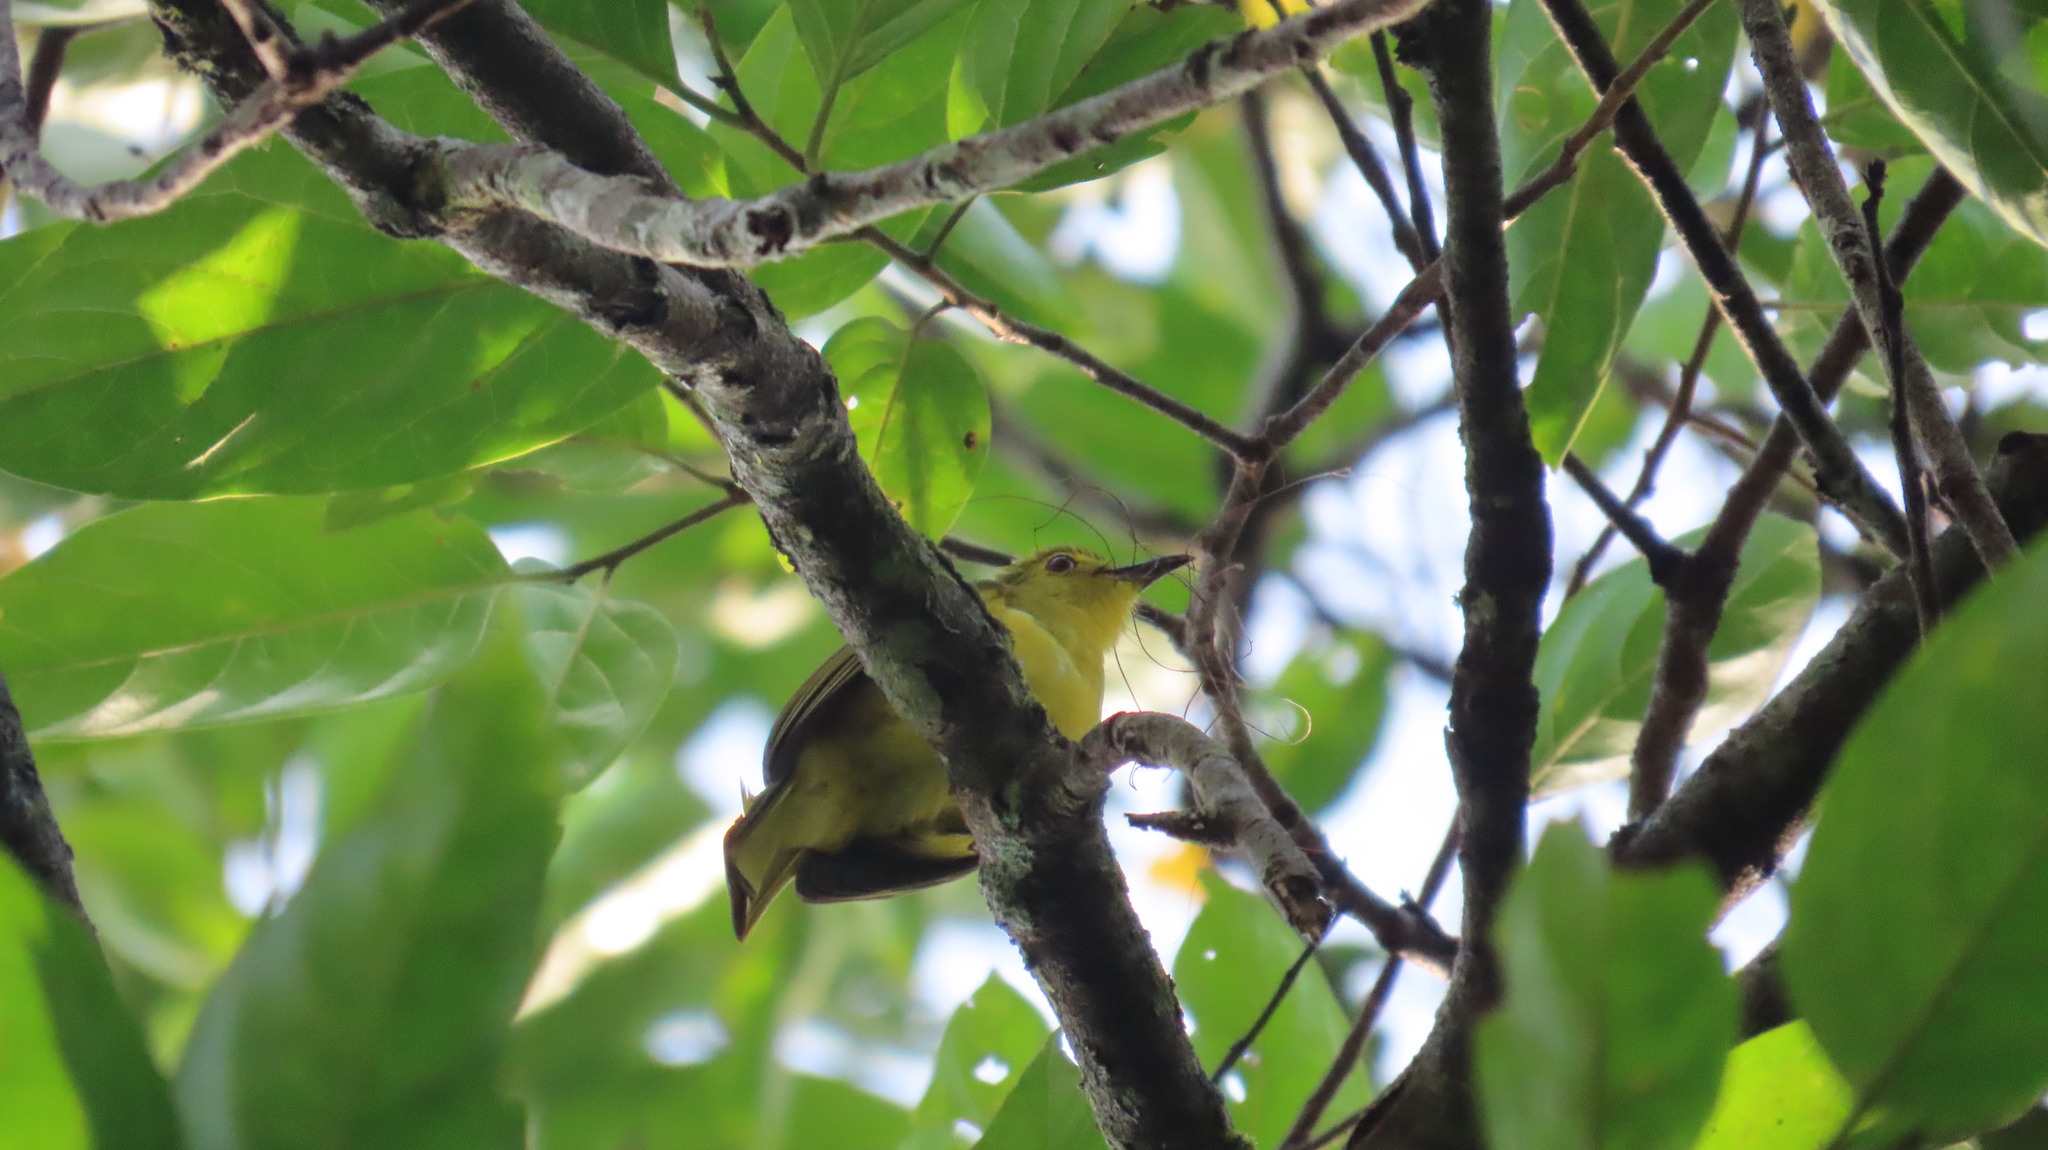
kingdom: Animalia
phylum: Chordata
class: Aves
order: Passeriformes
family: Pycnonotidae
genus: Acritillas
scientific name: Acritillas indica
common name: Yellow-browed bulbul
